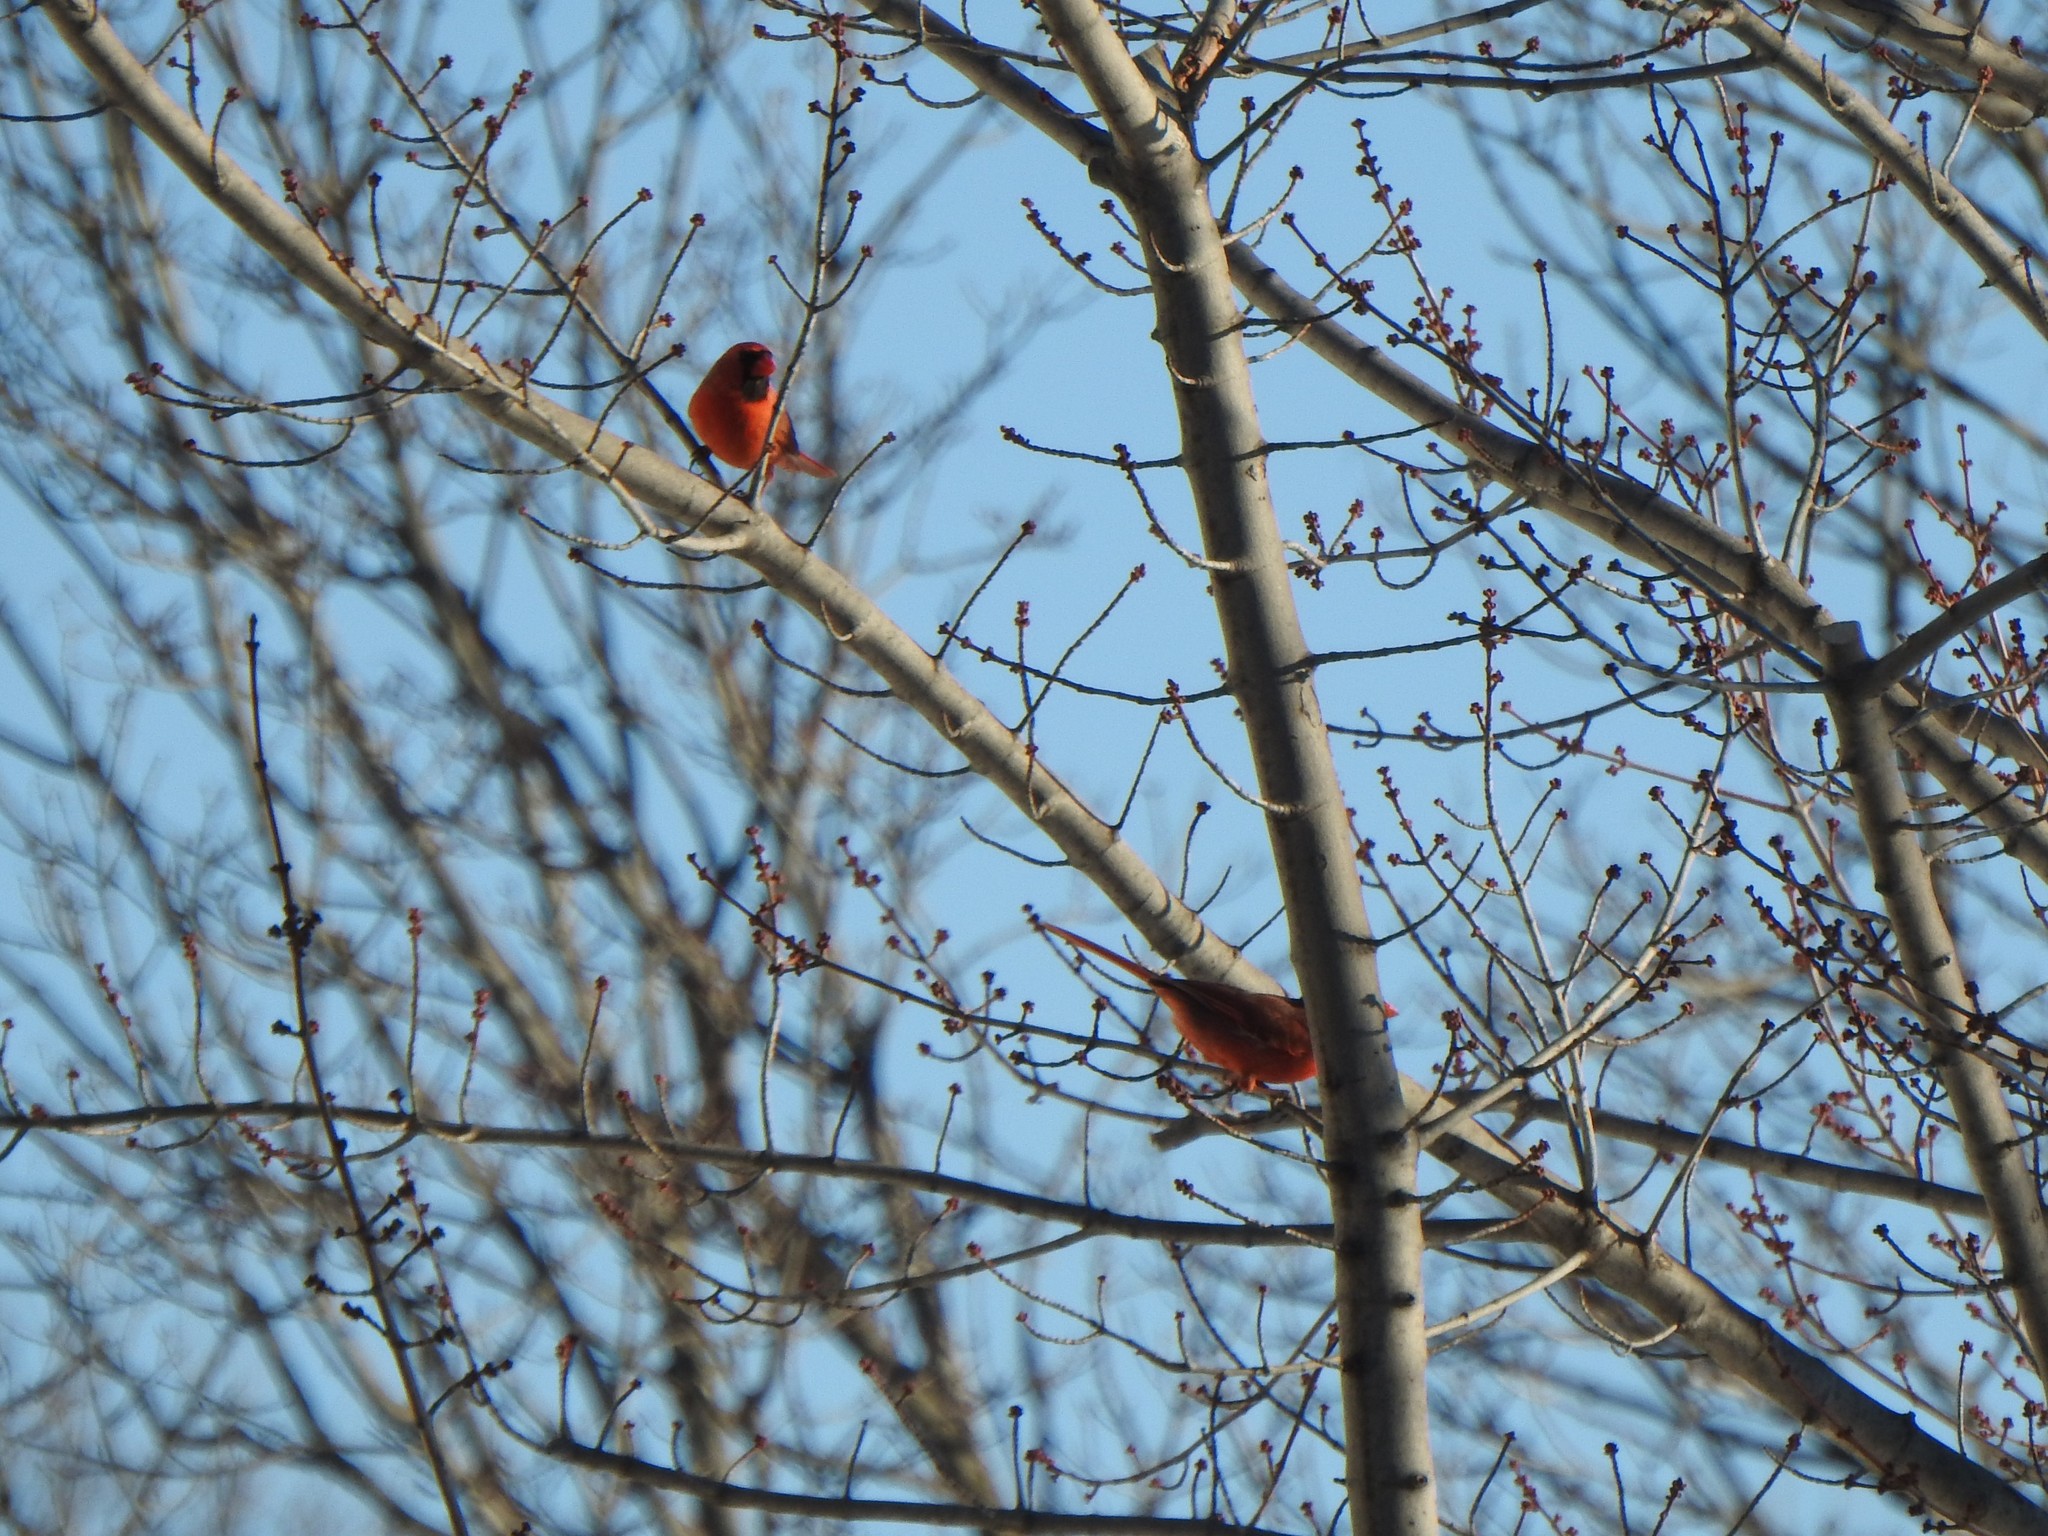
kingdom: Animalia
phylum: Chordata
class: Aves
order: Passeriformes
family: Cardinalidae
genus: Cardinalis
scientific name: Cardinalis cardinalis
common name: Northern cardinal
